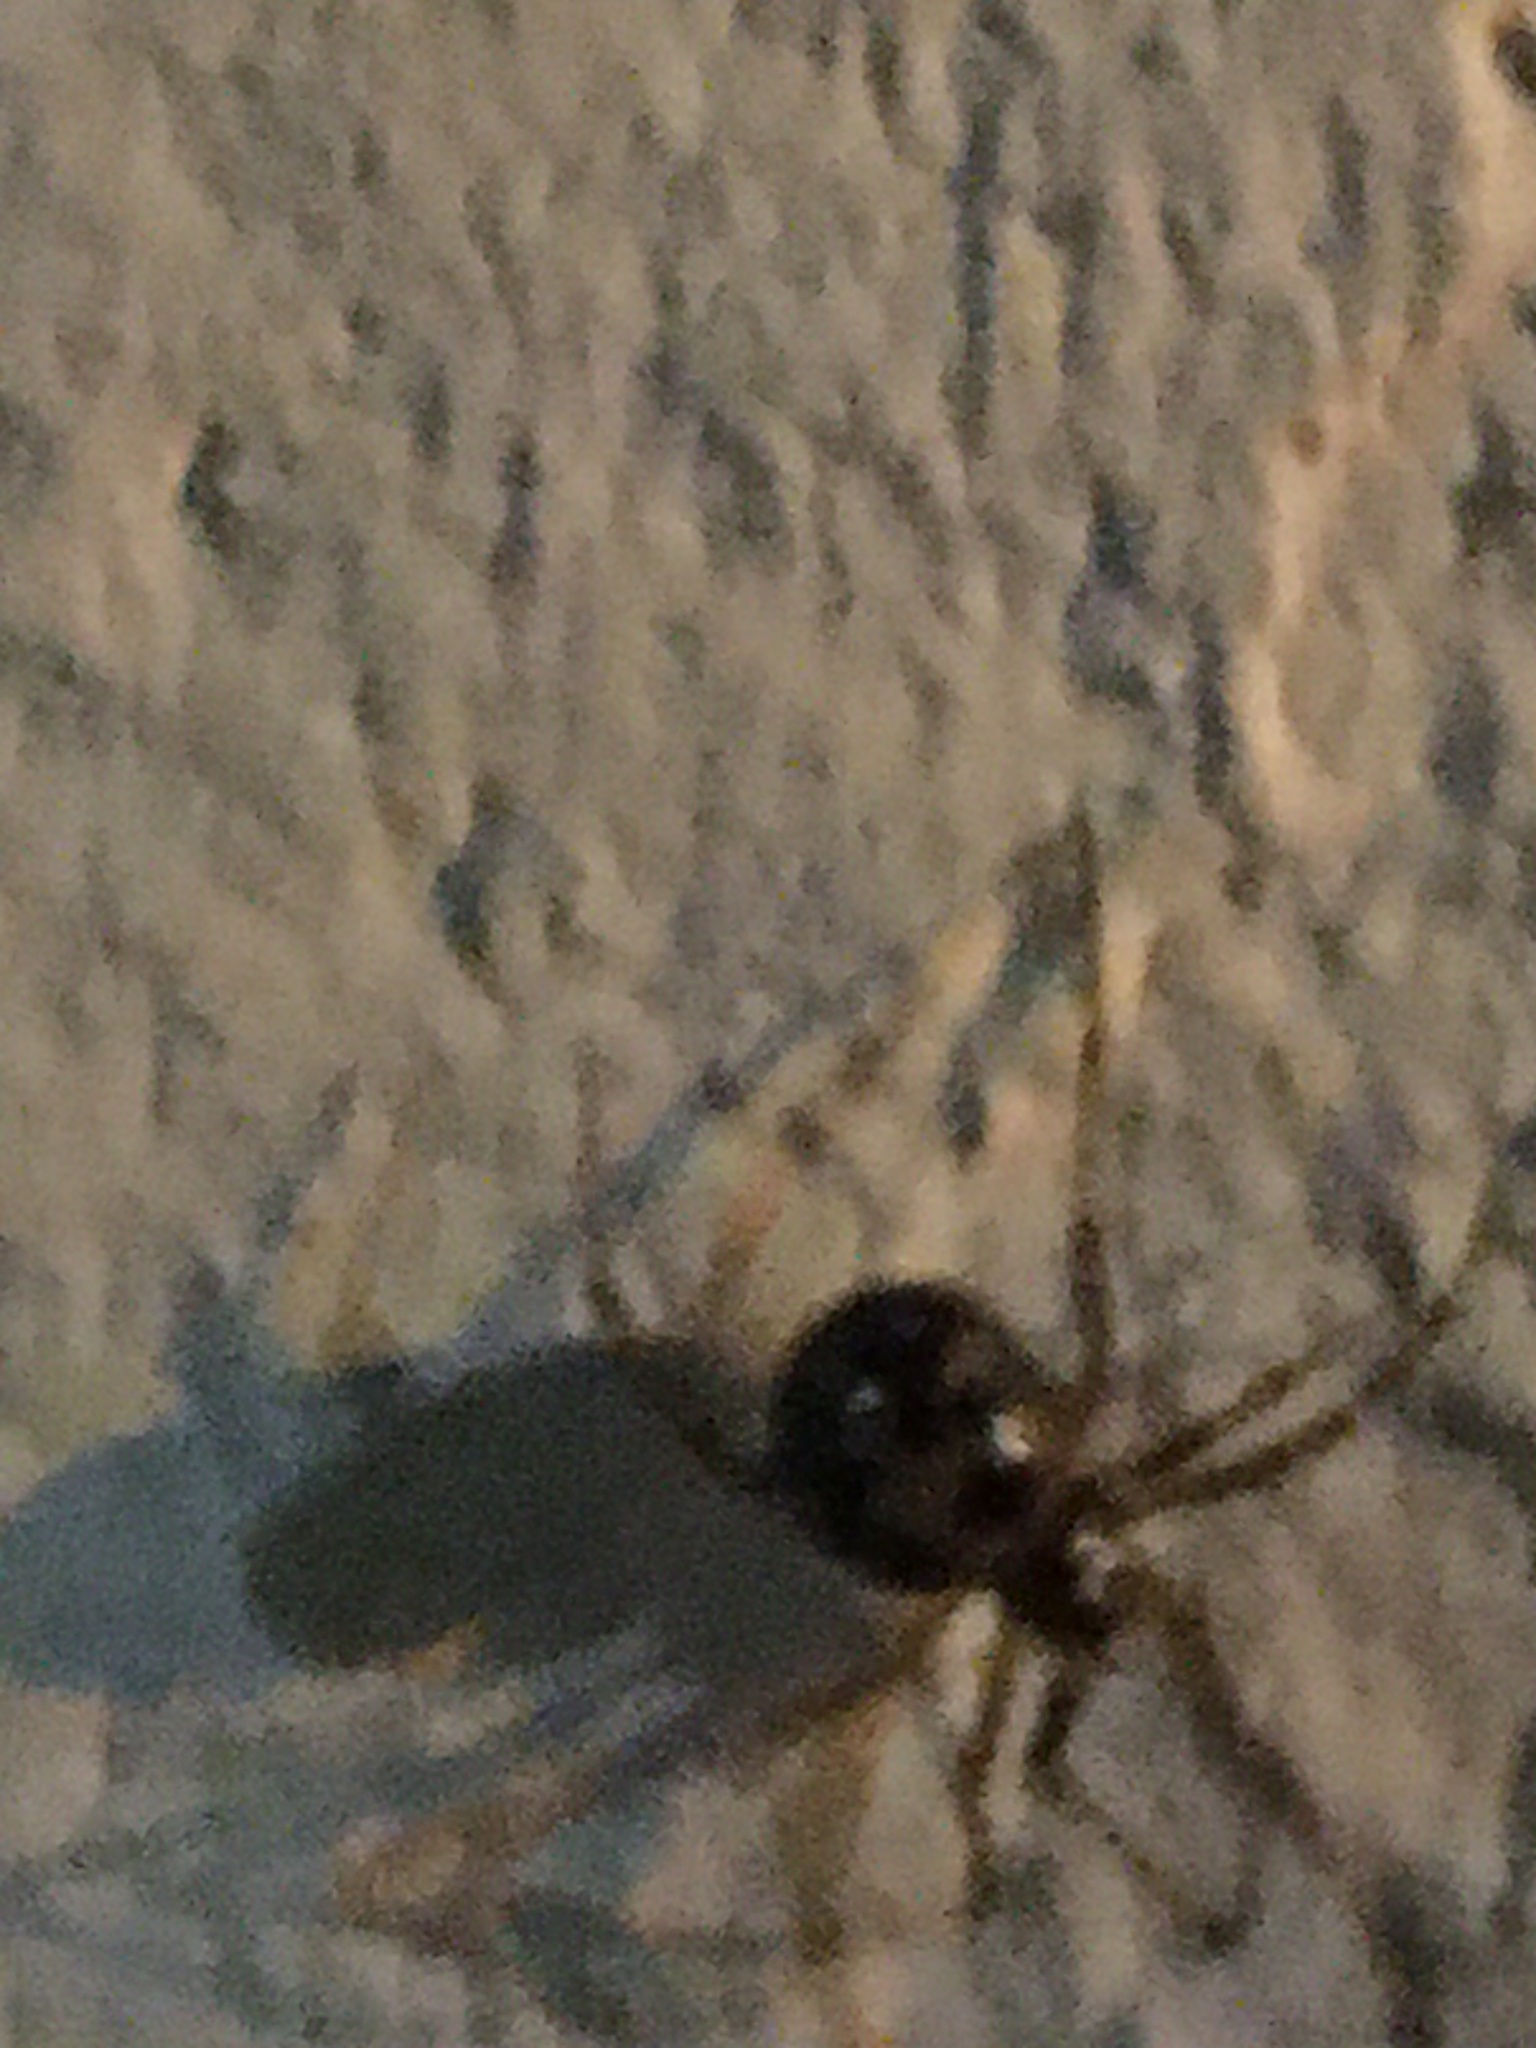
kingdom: Animalia
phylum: Arthropoda
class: Arachnida
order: Araneae
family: Theridiidae
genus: Steatoda
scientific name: Steatoda triangulosa
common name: Triangulate bud spider
